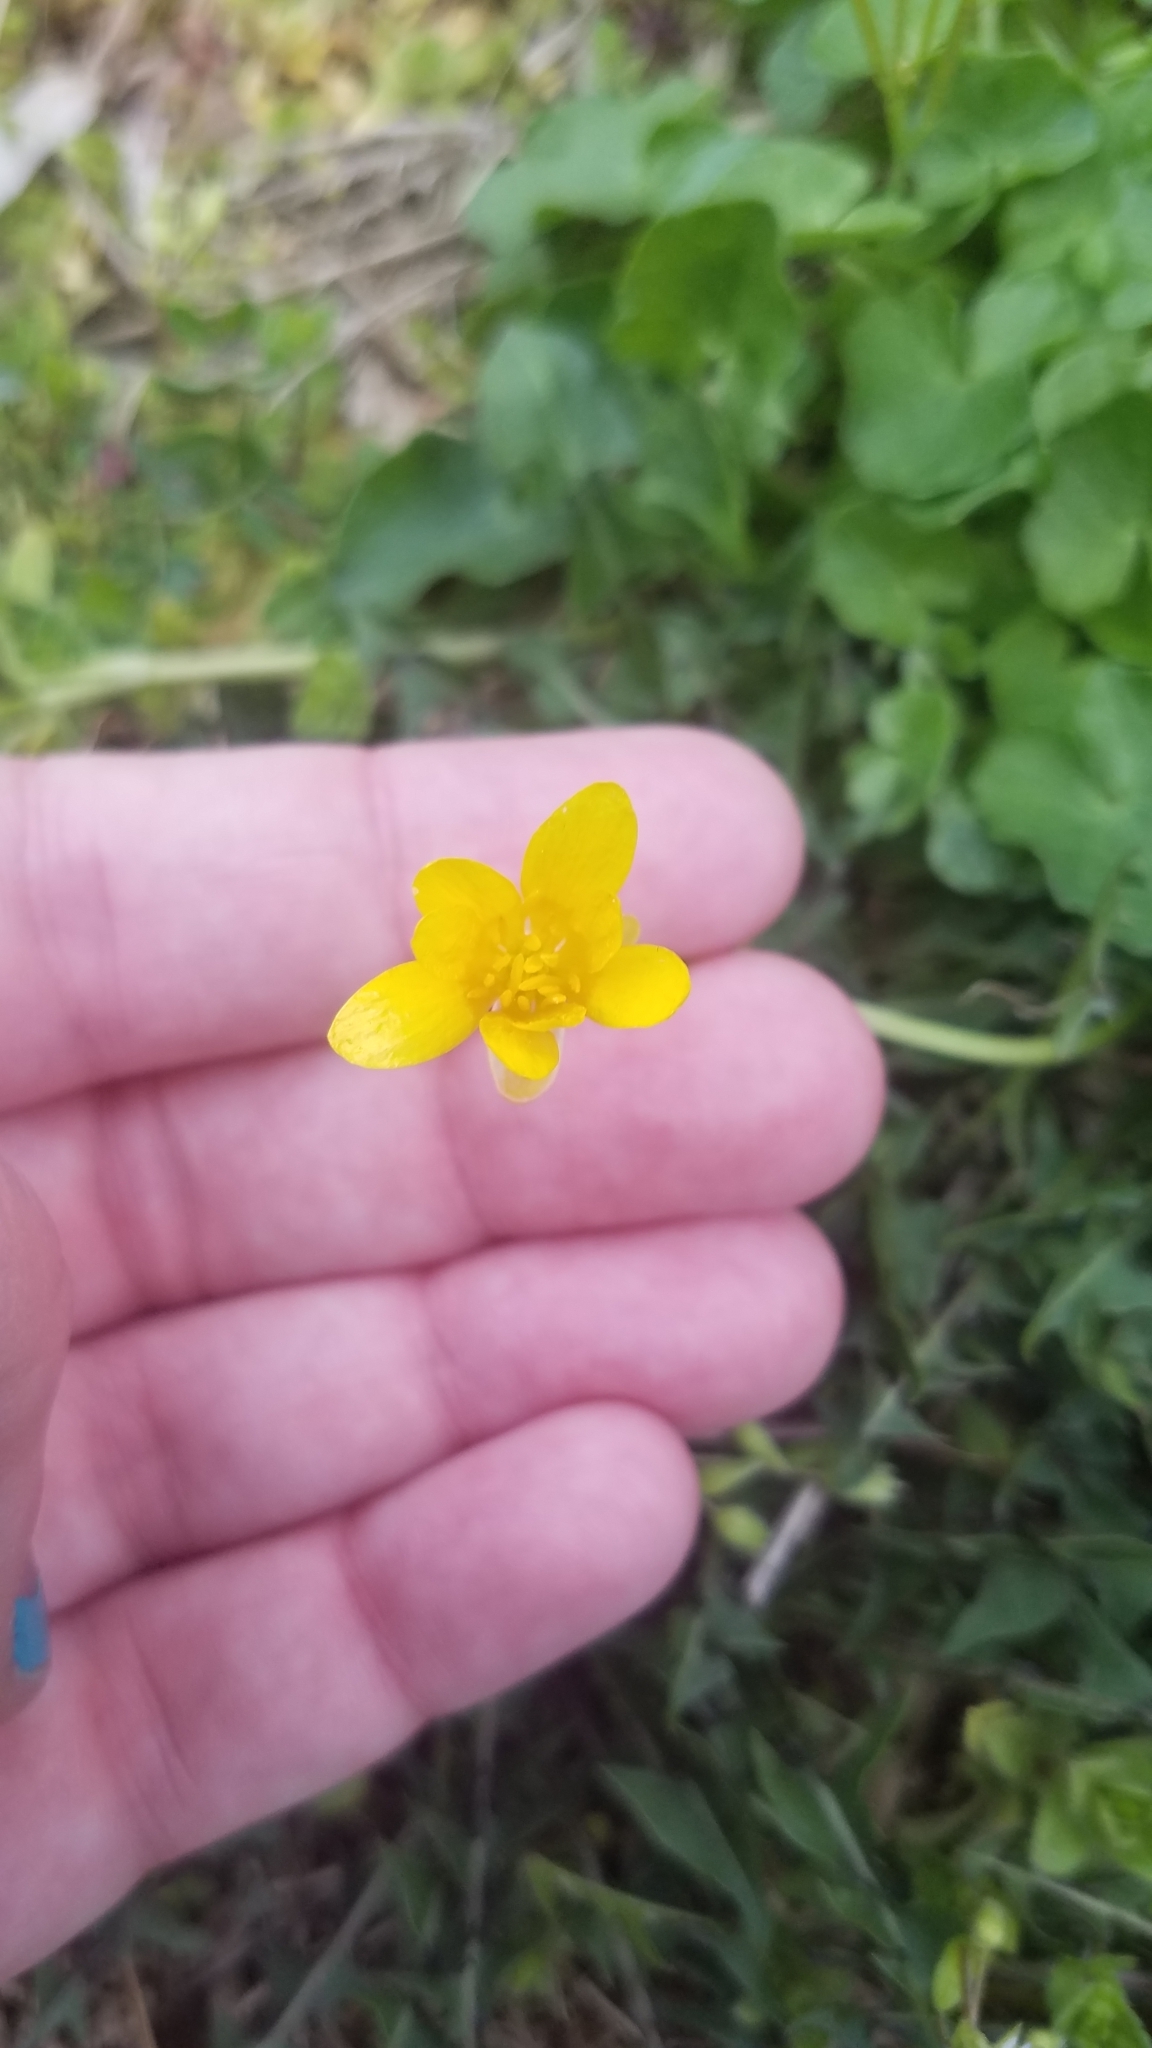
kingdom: Plantae
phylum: Tracheophyta
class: Magnoliopsida
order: Ranunculales
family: Ranunculaceae
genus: Ficaria
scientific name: Ficaria verna
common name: Lesser celandine
